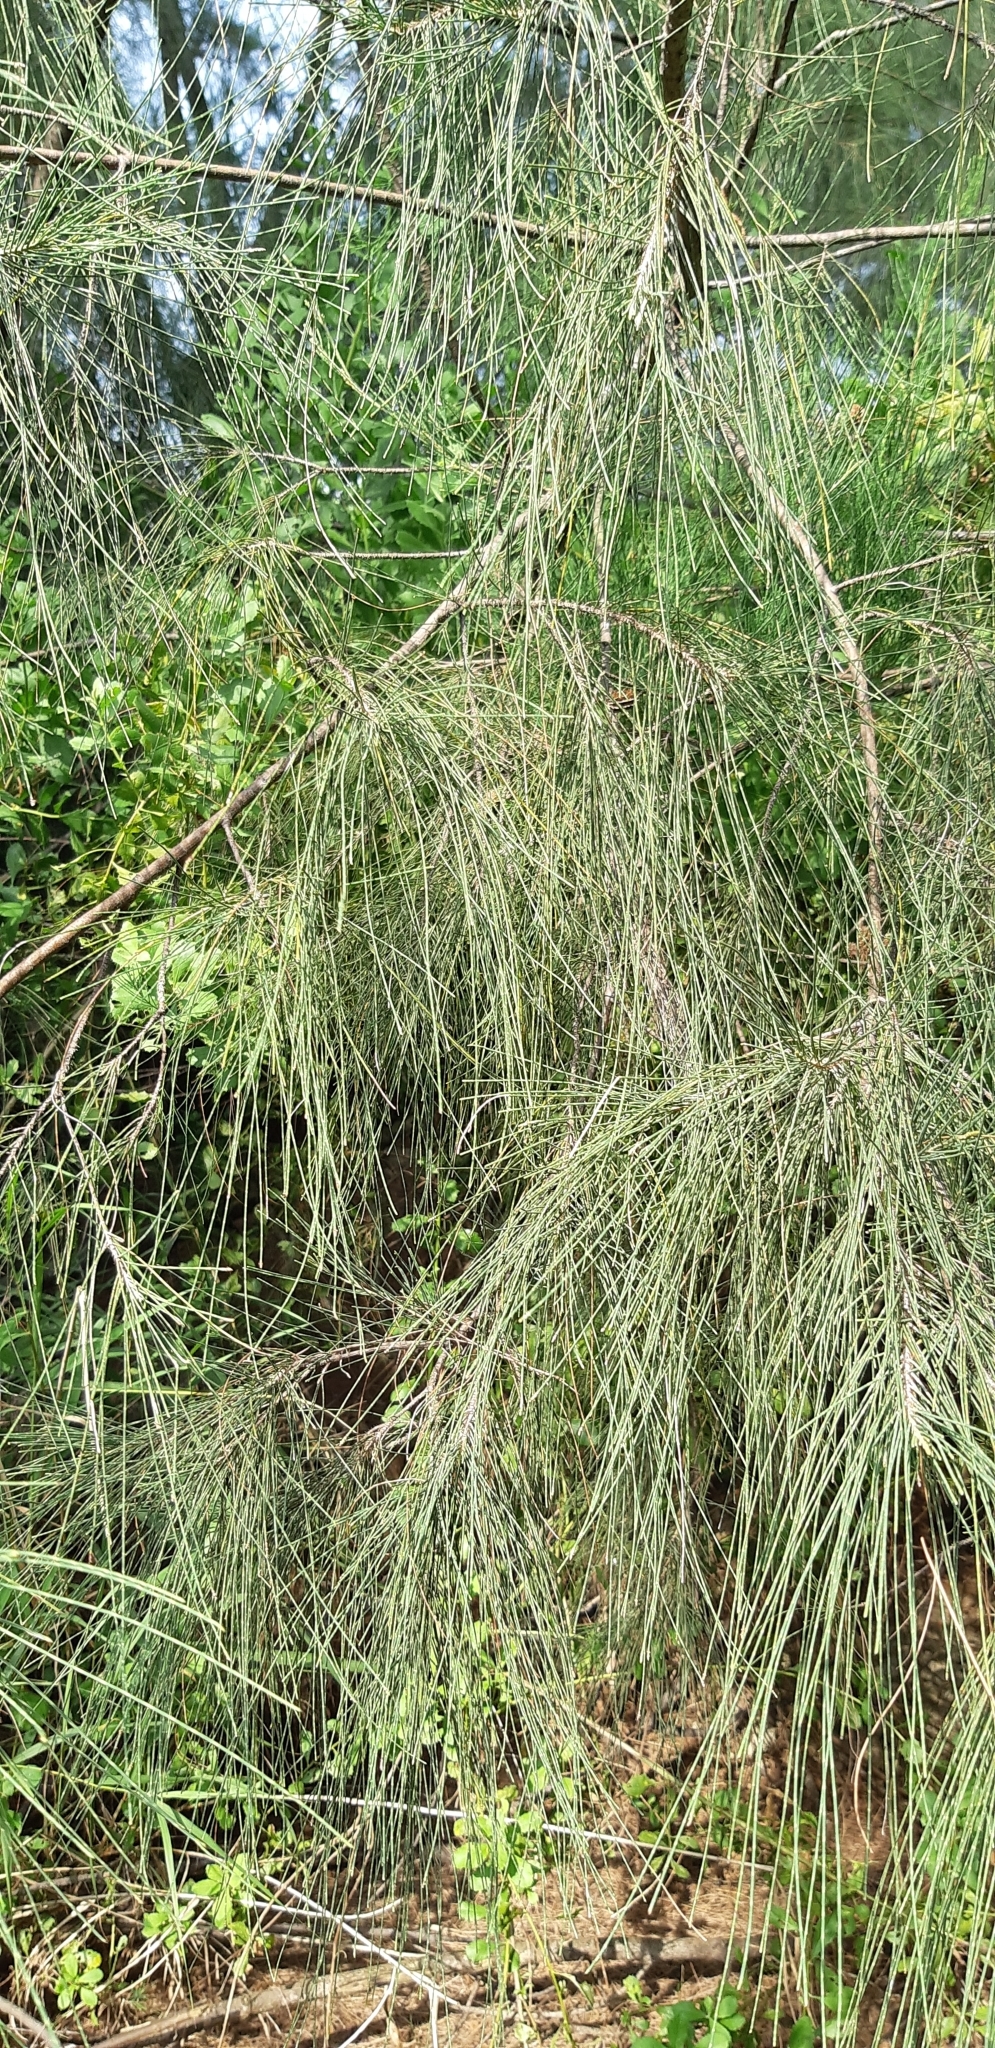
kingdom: Plantae
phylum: Tracheophyta
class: Magnoliopsida
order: Fagales
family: Casuarinaceae
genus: Casuarina
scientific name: Casuarina equisetifolia
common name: Beach sheoak
